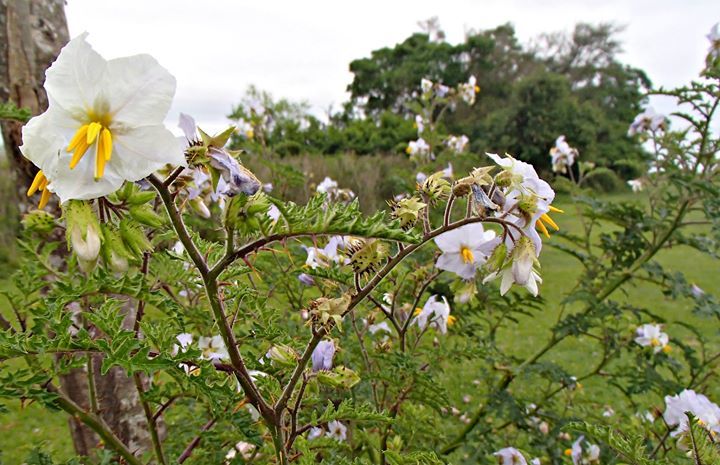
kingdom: Plantae
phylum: Tracheophyta
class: Magnoliopsida
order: Solanales
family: Solanaceae
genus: Solanum
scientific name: Solanum sisymbriifolium
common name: Red buffalo-bur
